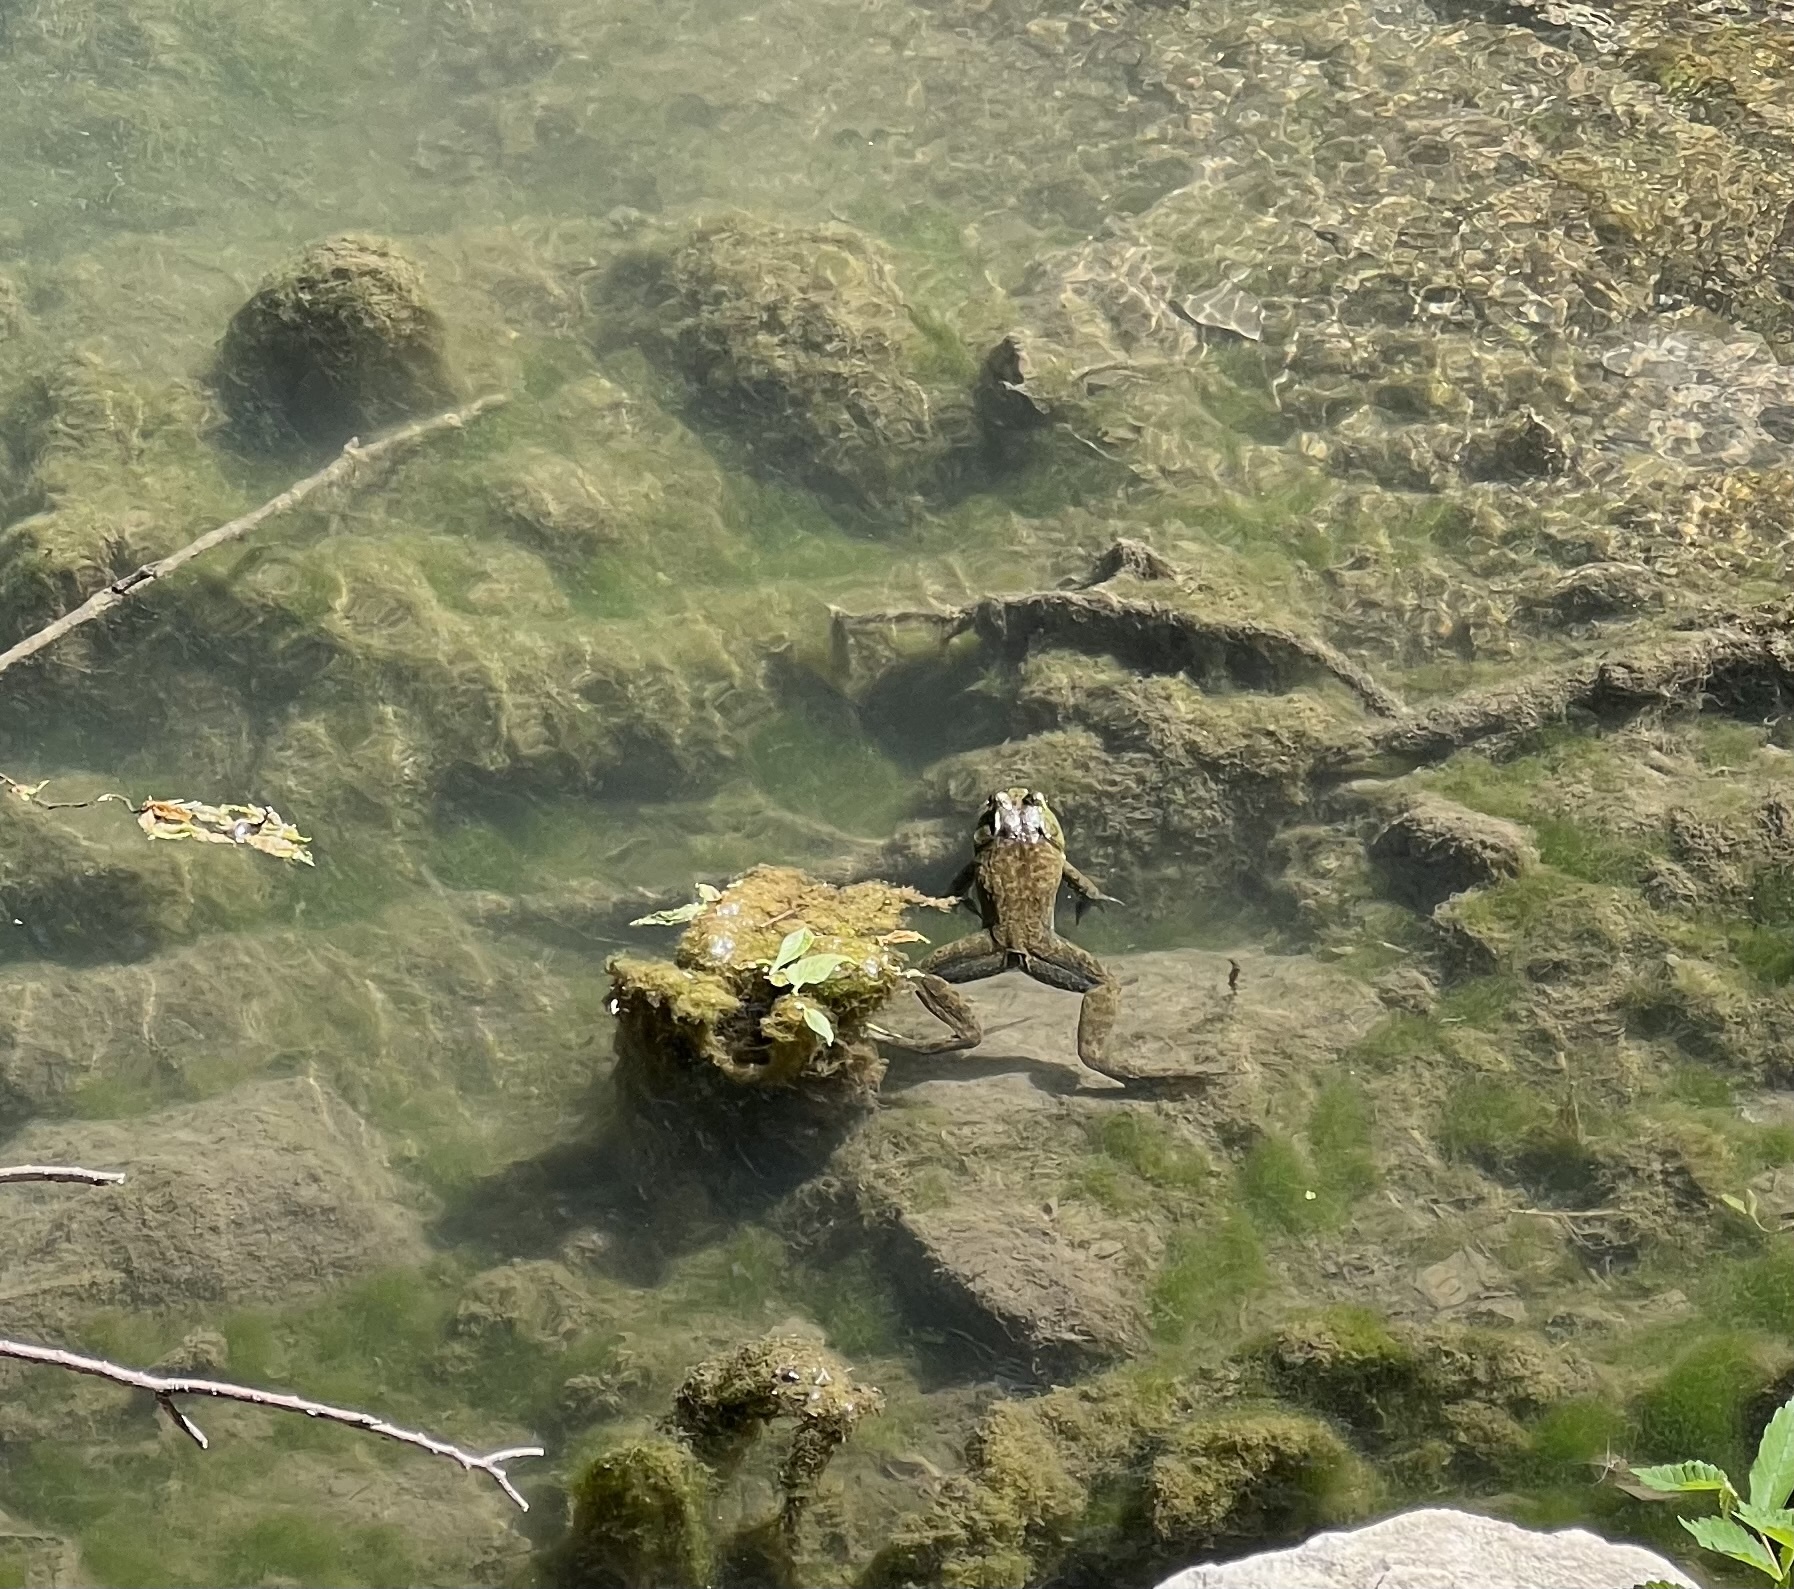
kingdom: Animalia
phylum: Chordata
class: Amphibia
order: Anura
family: Ranidae
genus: Lithobates
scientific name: Lithobates catesbeianus
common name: American bullfrog
